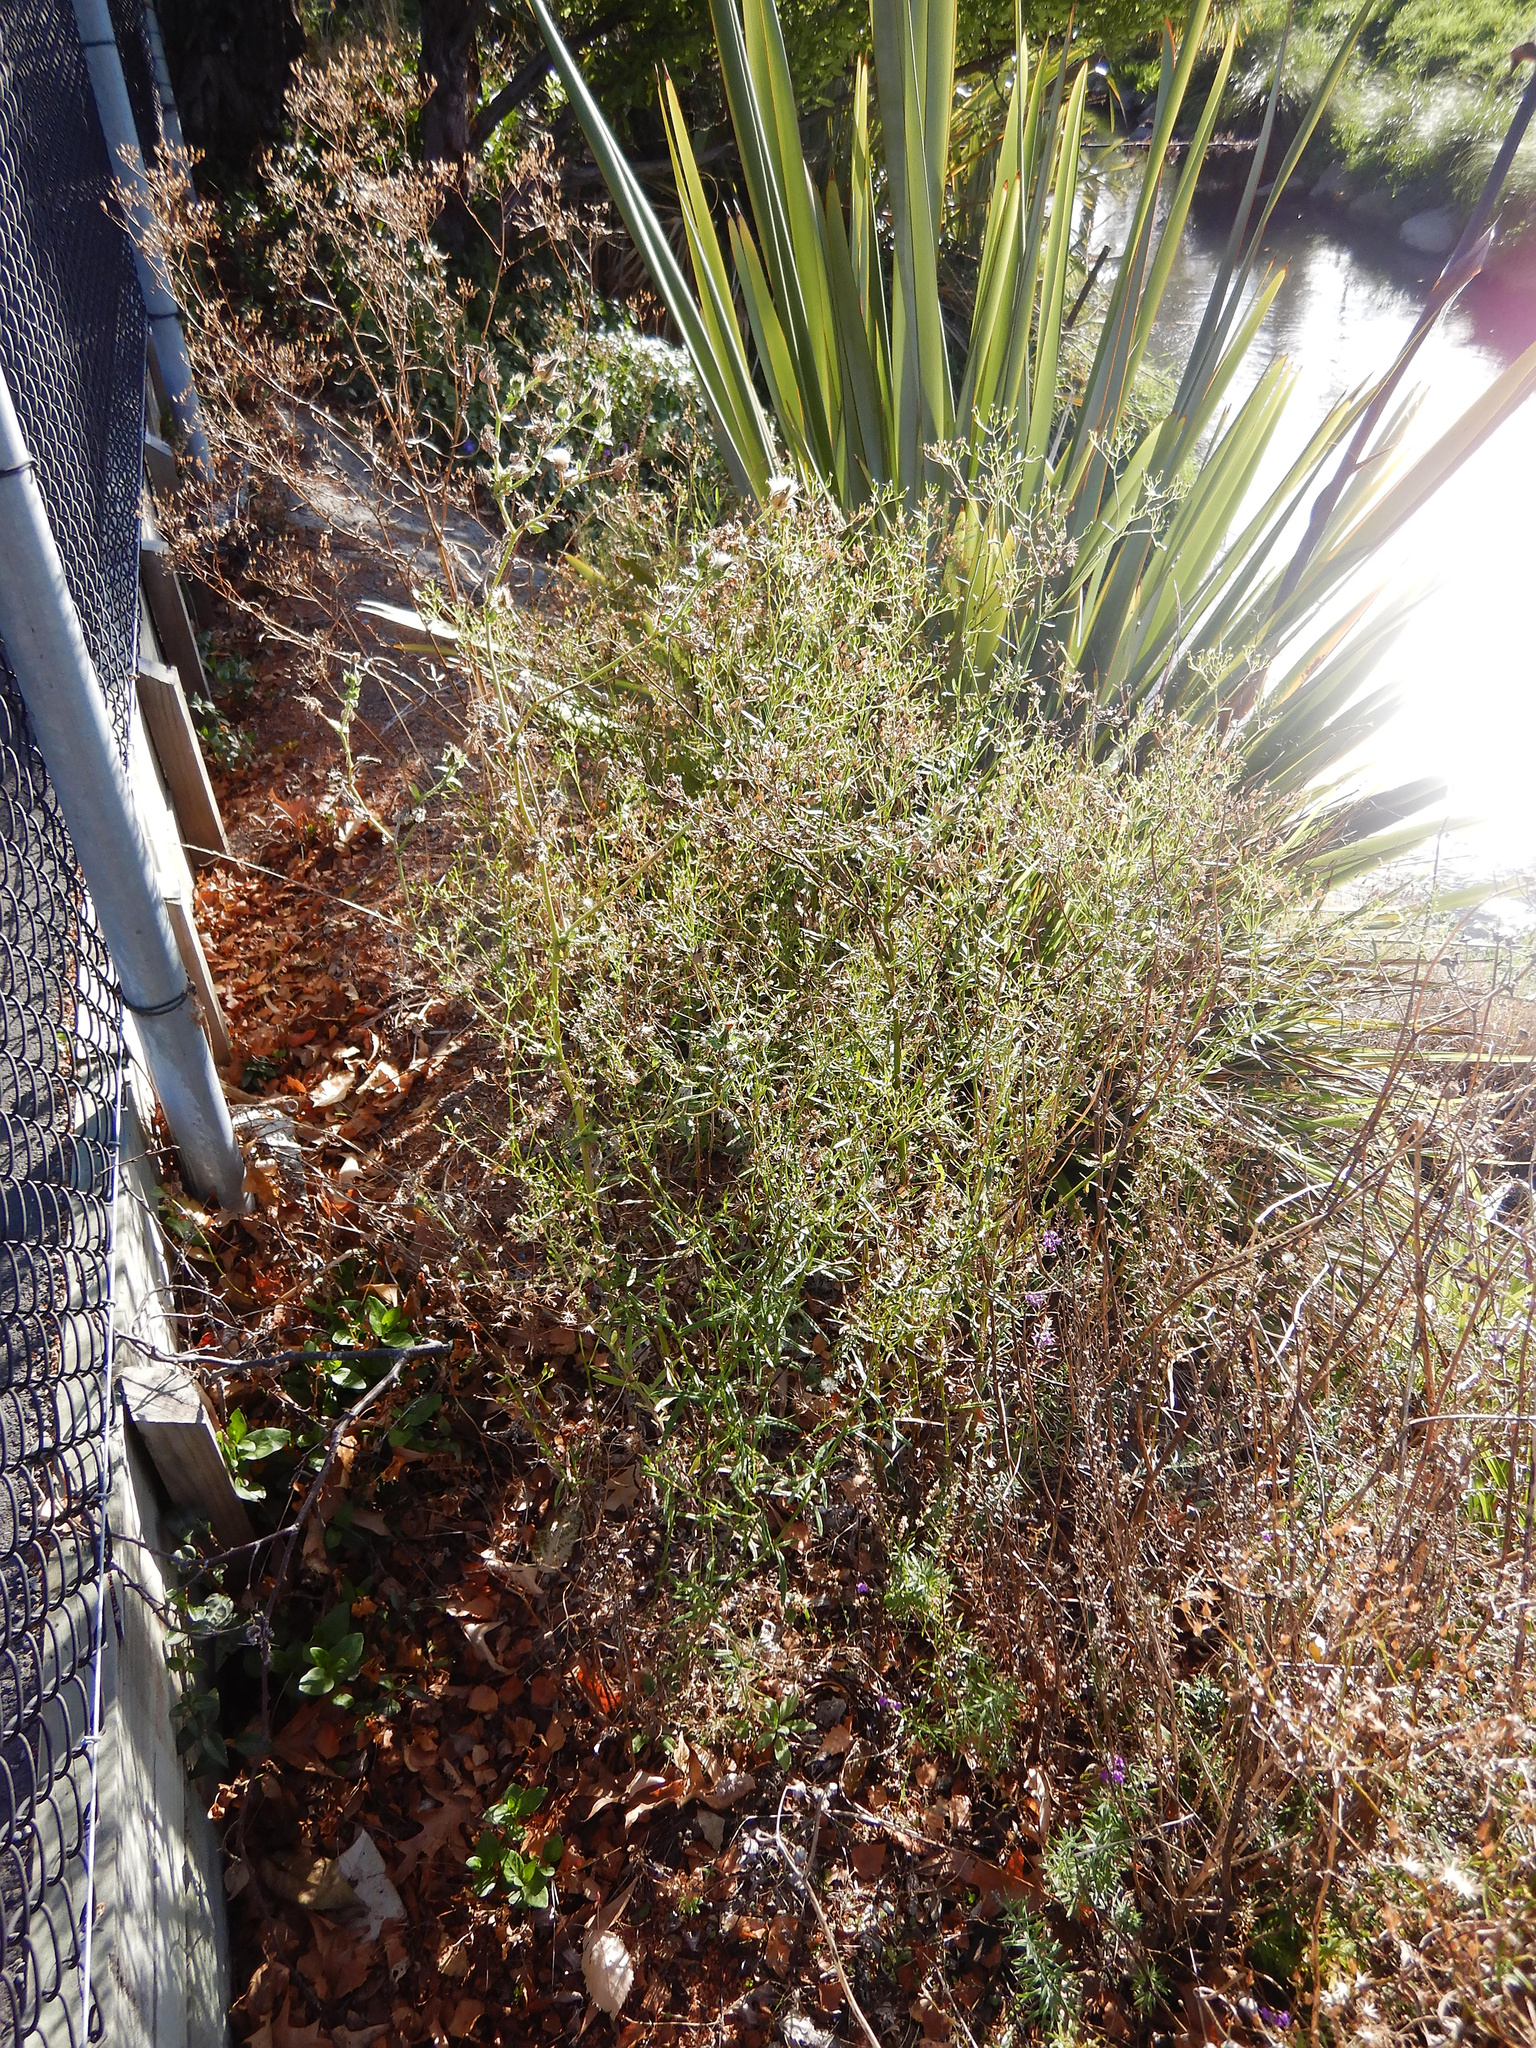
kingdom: Plantae
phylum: Tracheophyta
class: Magnoliopsida
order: Asterales
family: Asteraceae
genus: Senecio
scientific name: Senecio hispidulus
